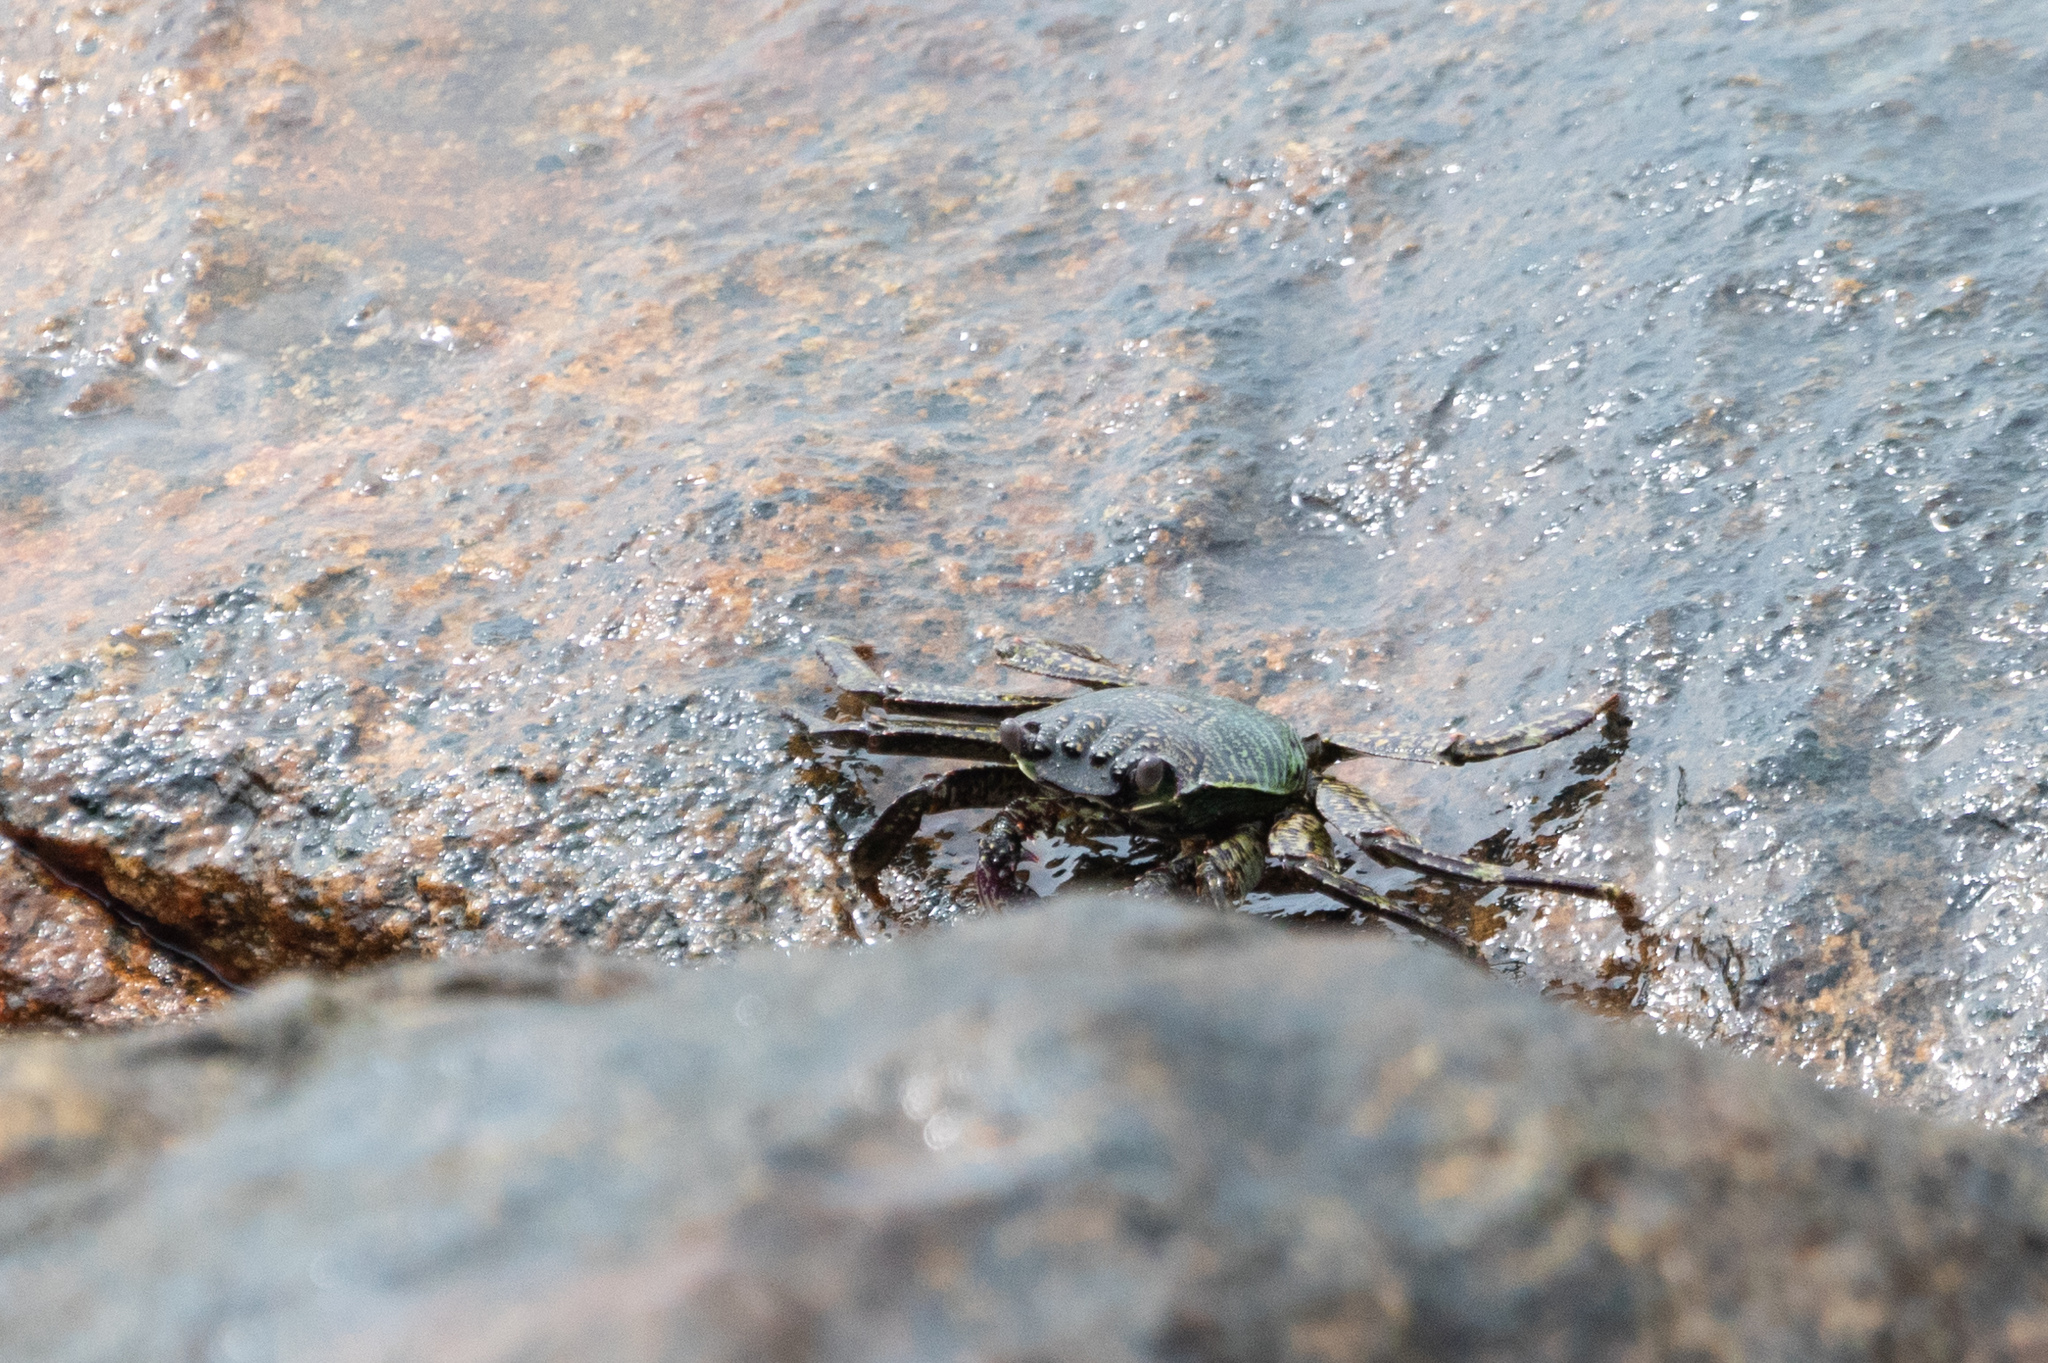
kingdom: Animalia
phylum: Arthropoda
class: Malacostraca
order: Decapoda
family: Grapsidae
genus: Grapsus
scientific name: Grapsus albolineatus
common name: Mottled lightfoot crab
